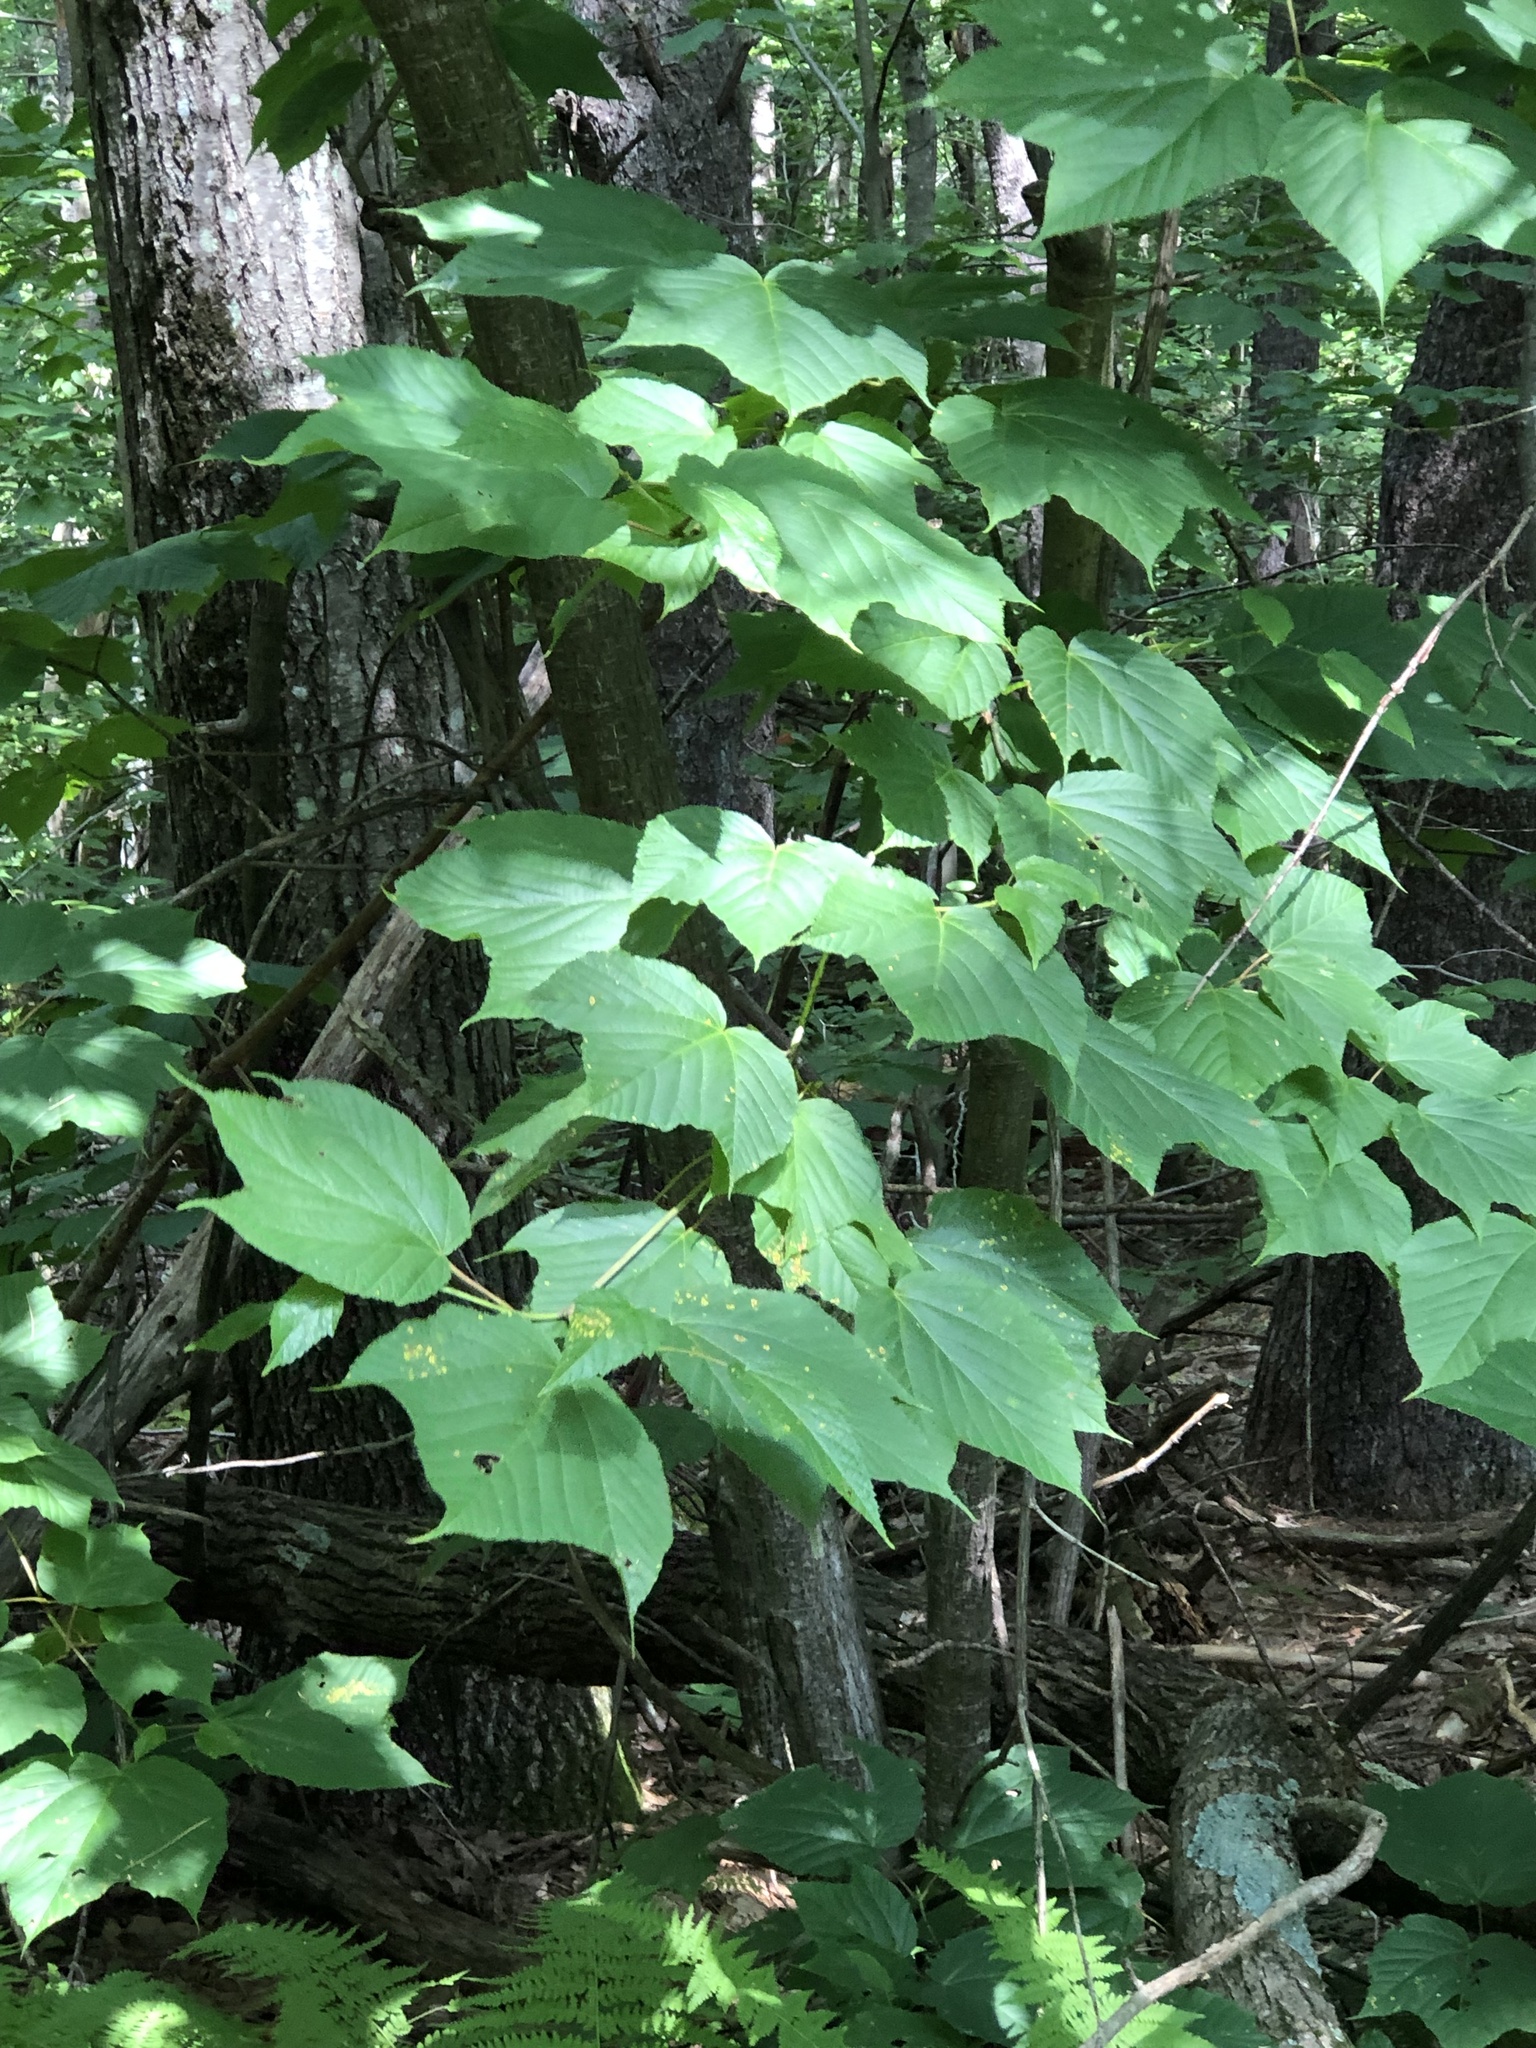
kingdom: Plantae
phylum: Tracheophyta
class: Magnoliopsida
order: Sapindales
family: Sapindaceae
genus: Acer
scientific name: Acer pensylvanicum
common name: Moosewood
